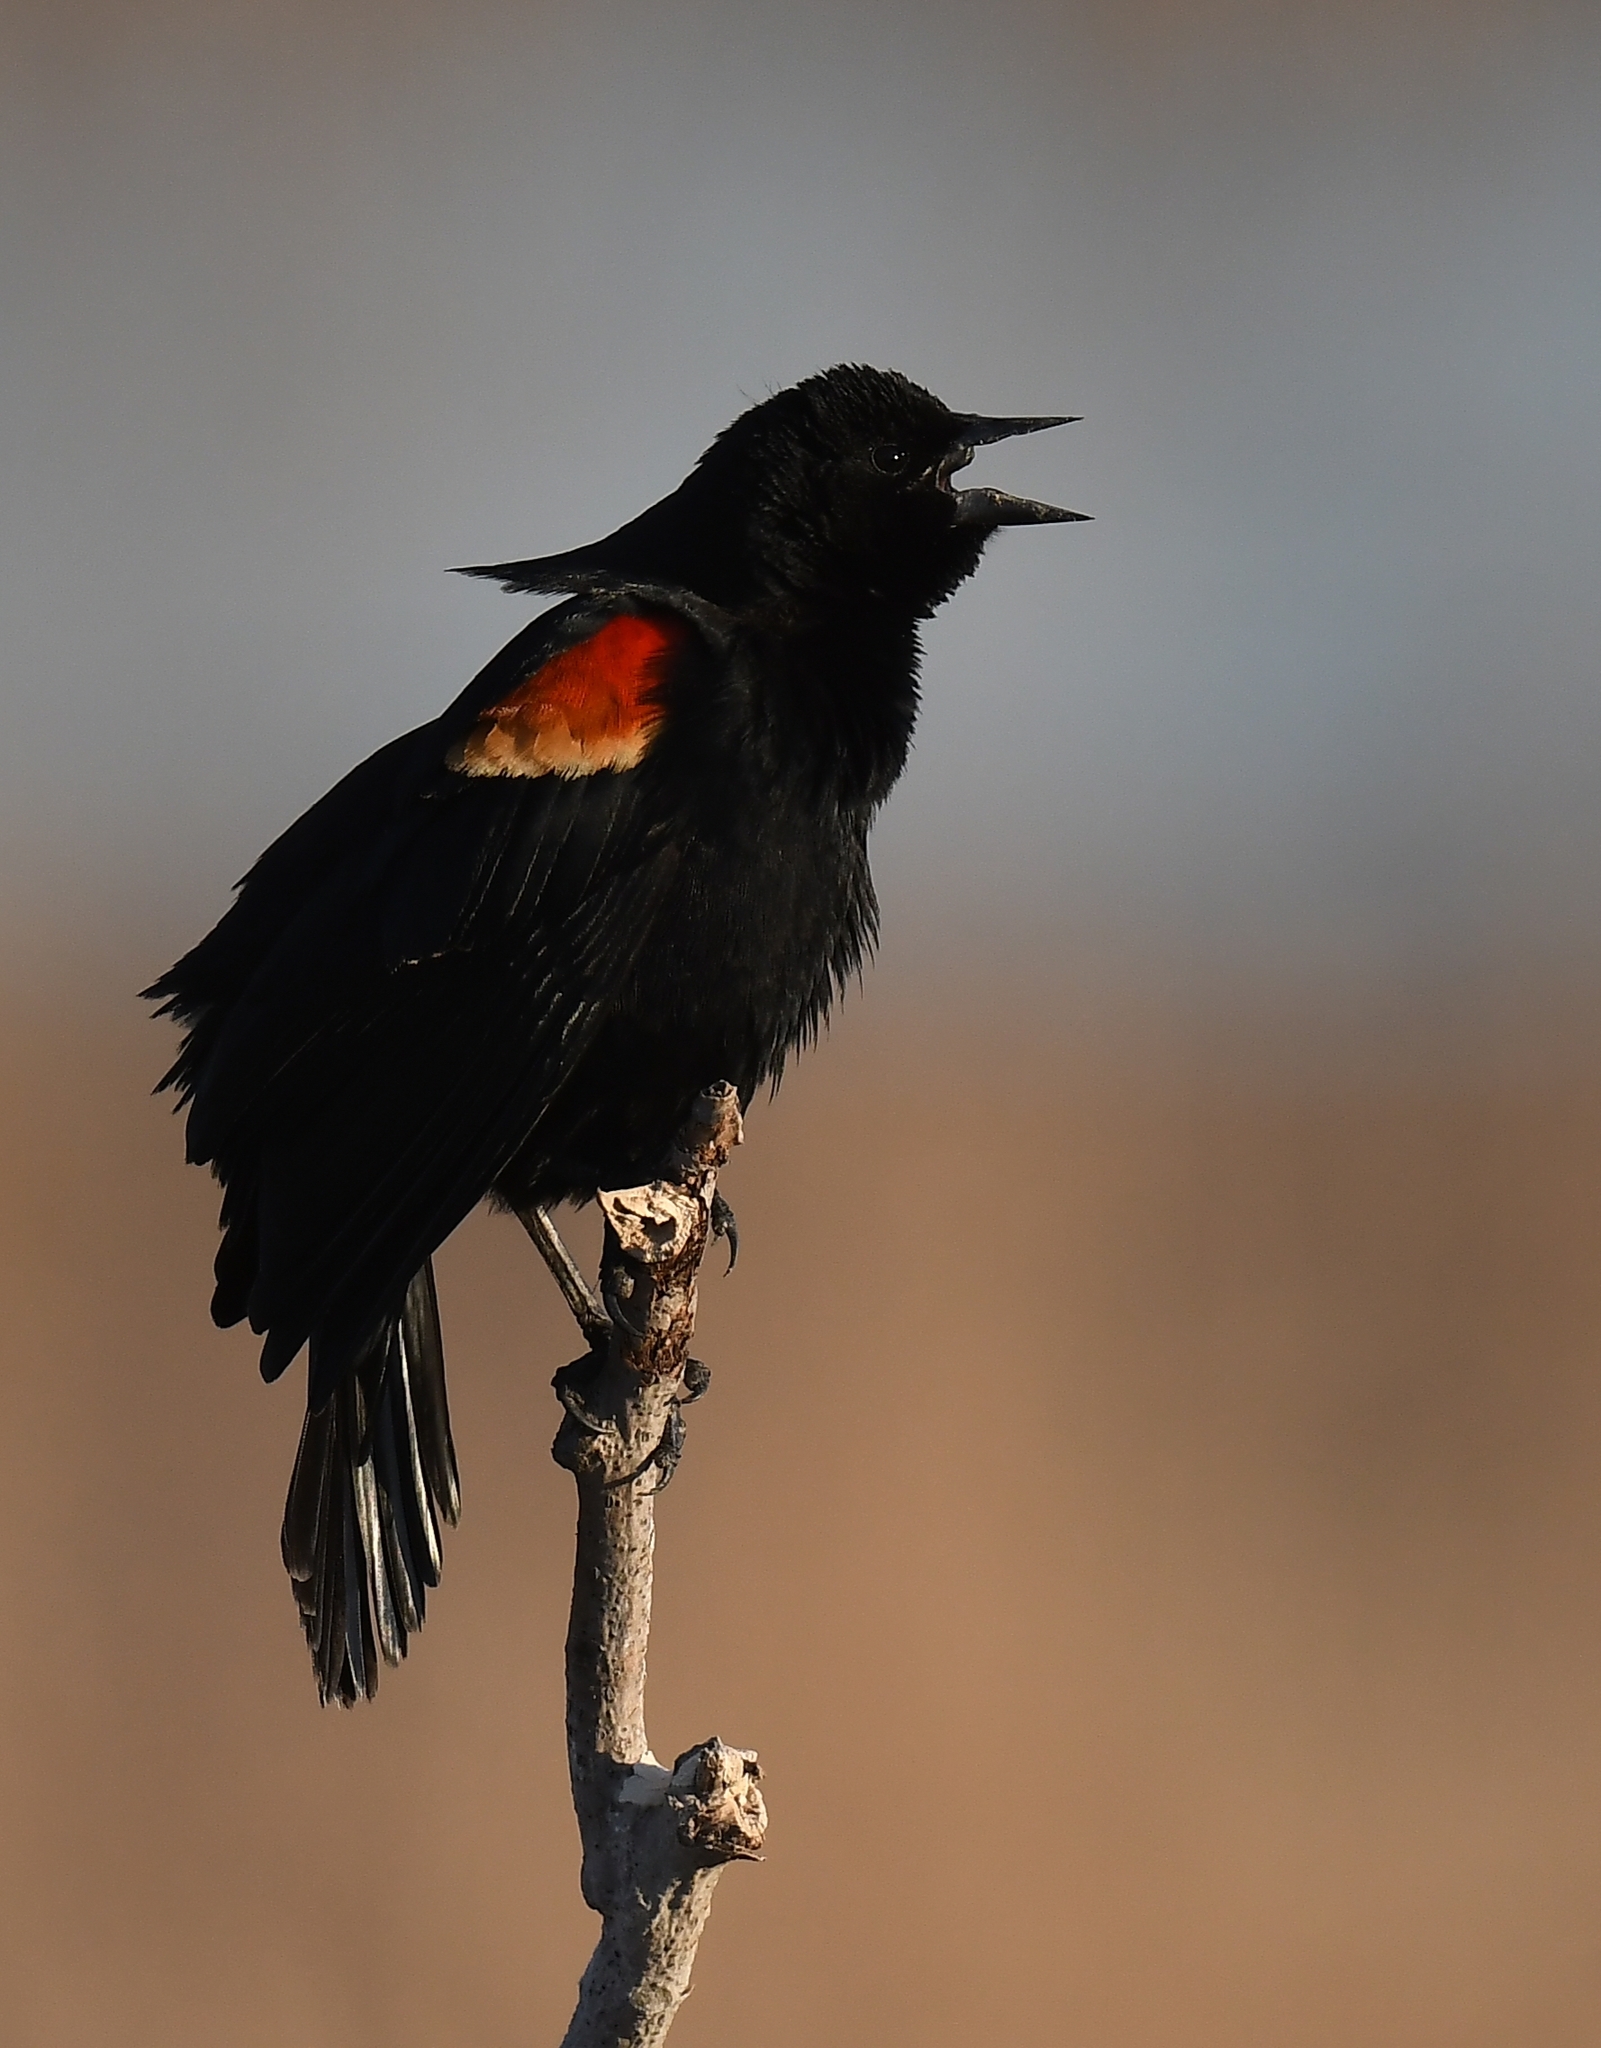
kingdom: Animalia
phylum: Chordata
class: Aves
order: Passeriformes
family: Icteridae
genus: Agelaius
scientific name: Agelaius phoeniceus
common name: Red-winged blackbird
